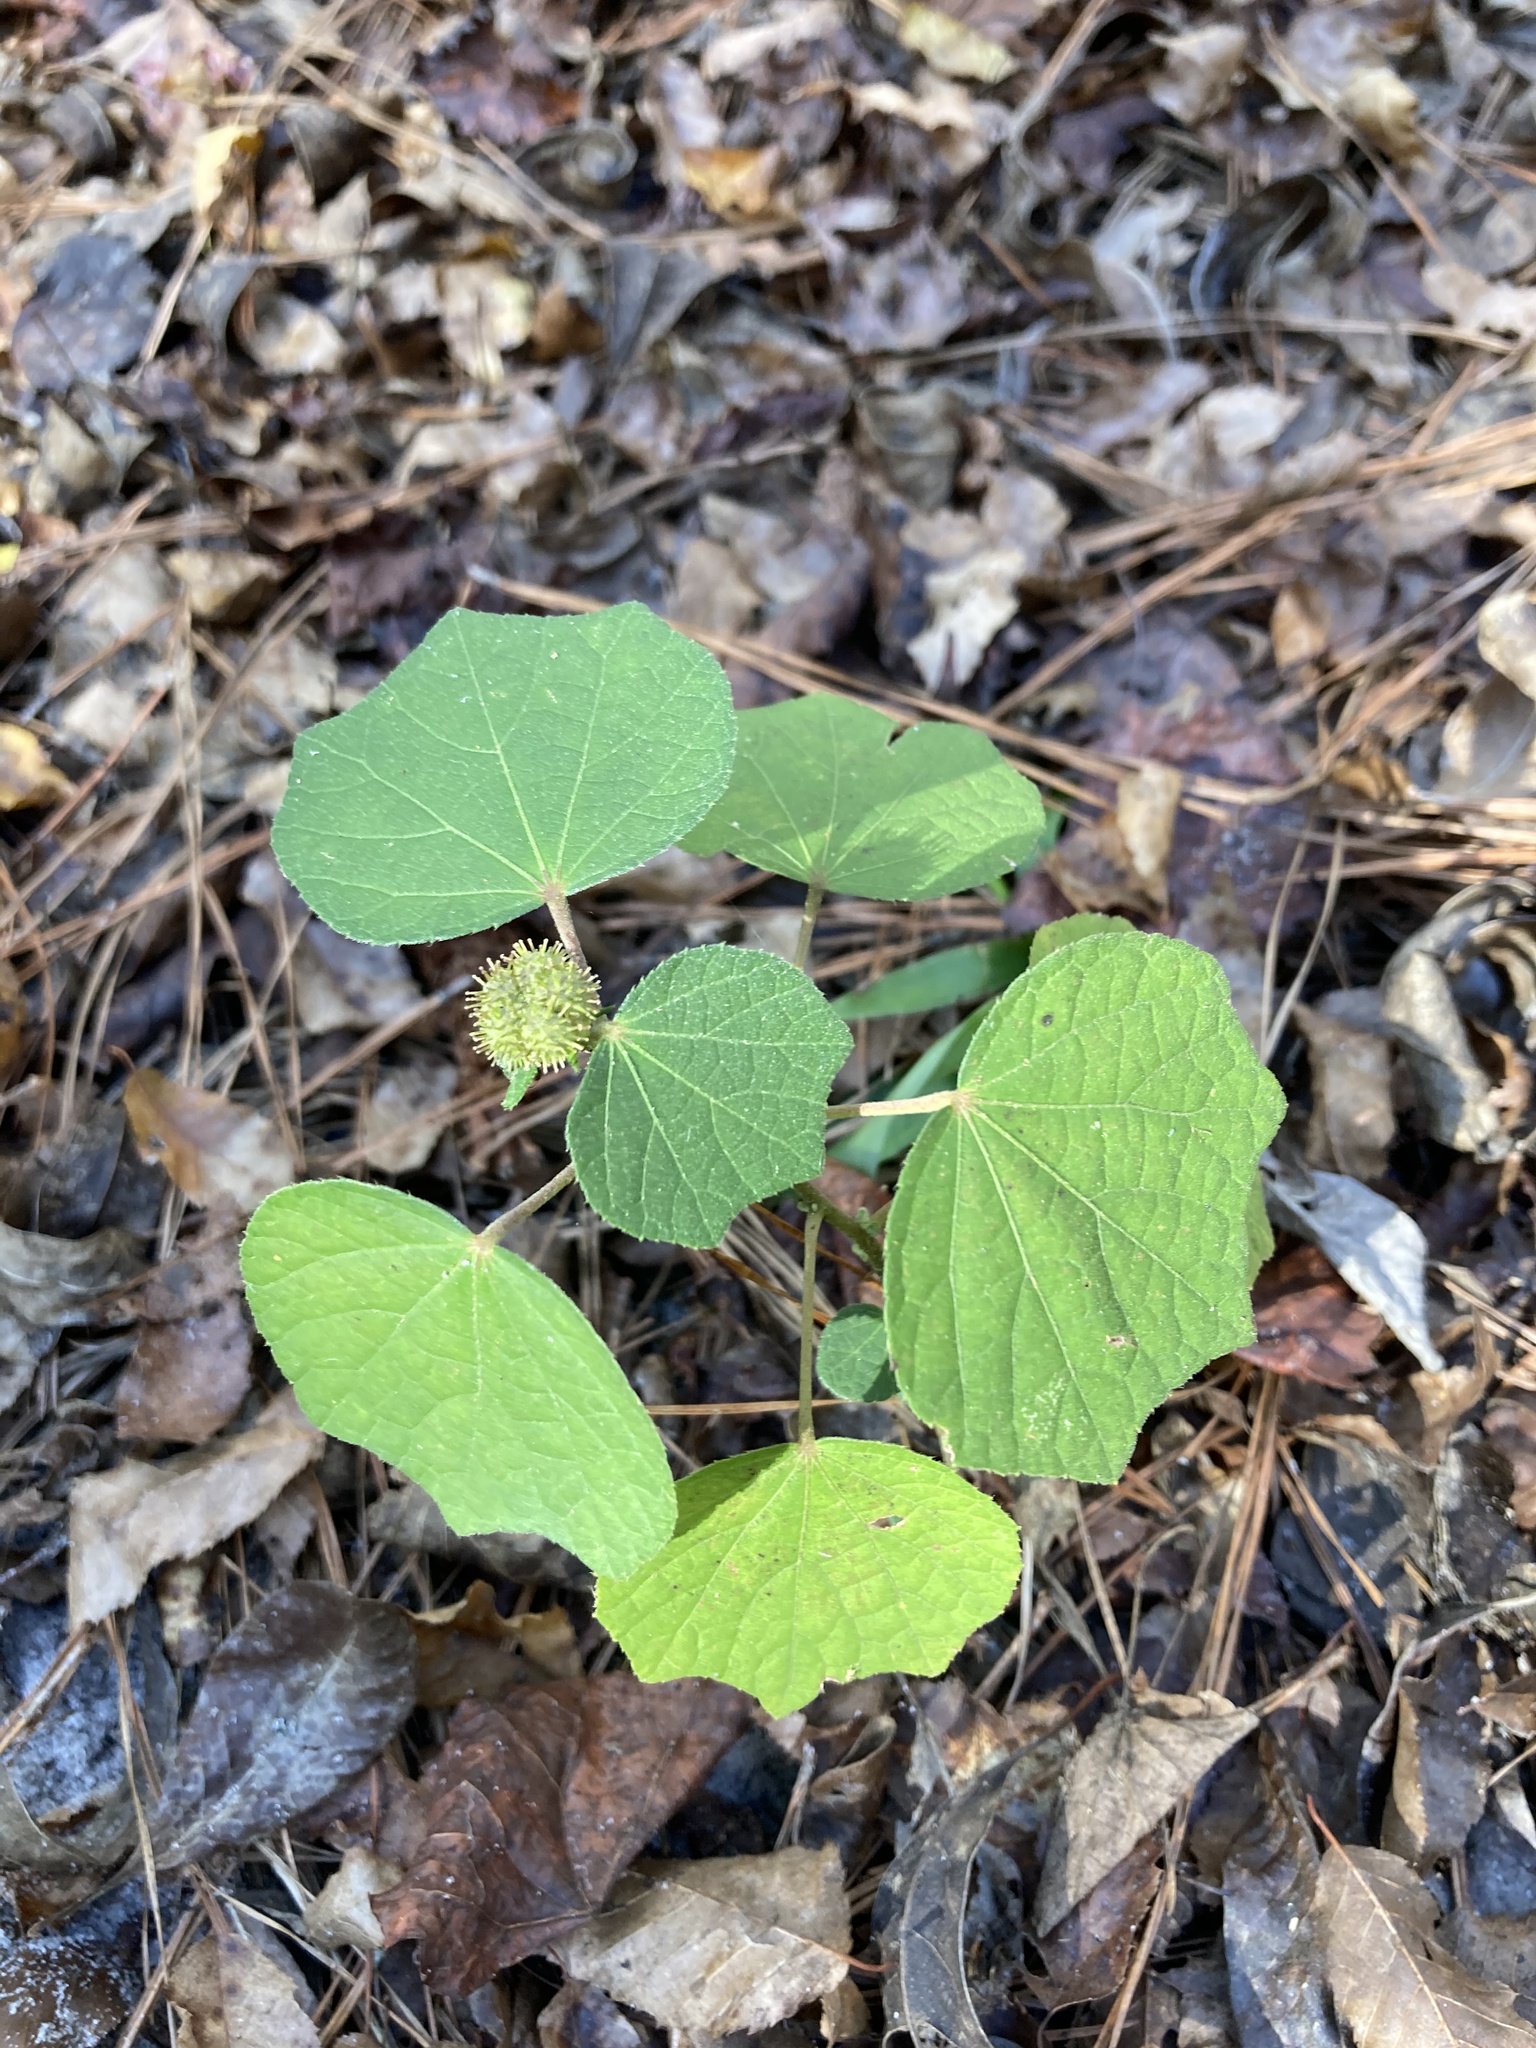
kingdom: Plantae
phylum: Tracheophyta
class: Magnoliopsida
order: Malvales
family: Malvaceae
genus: Urena
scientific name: Urena lobata
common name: Caesarweed
